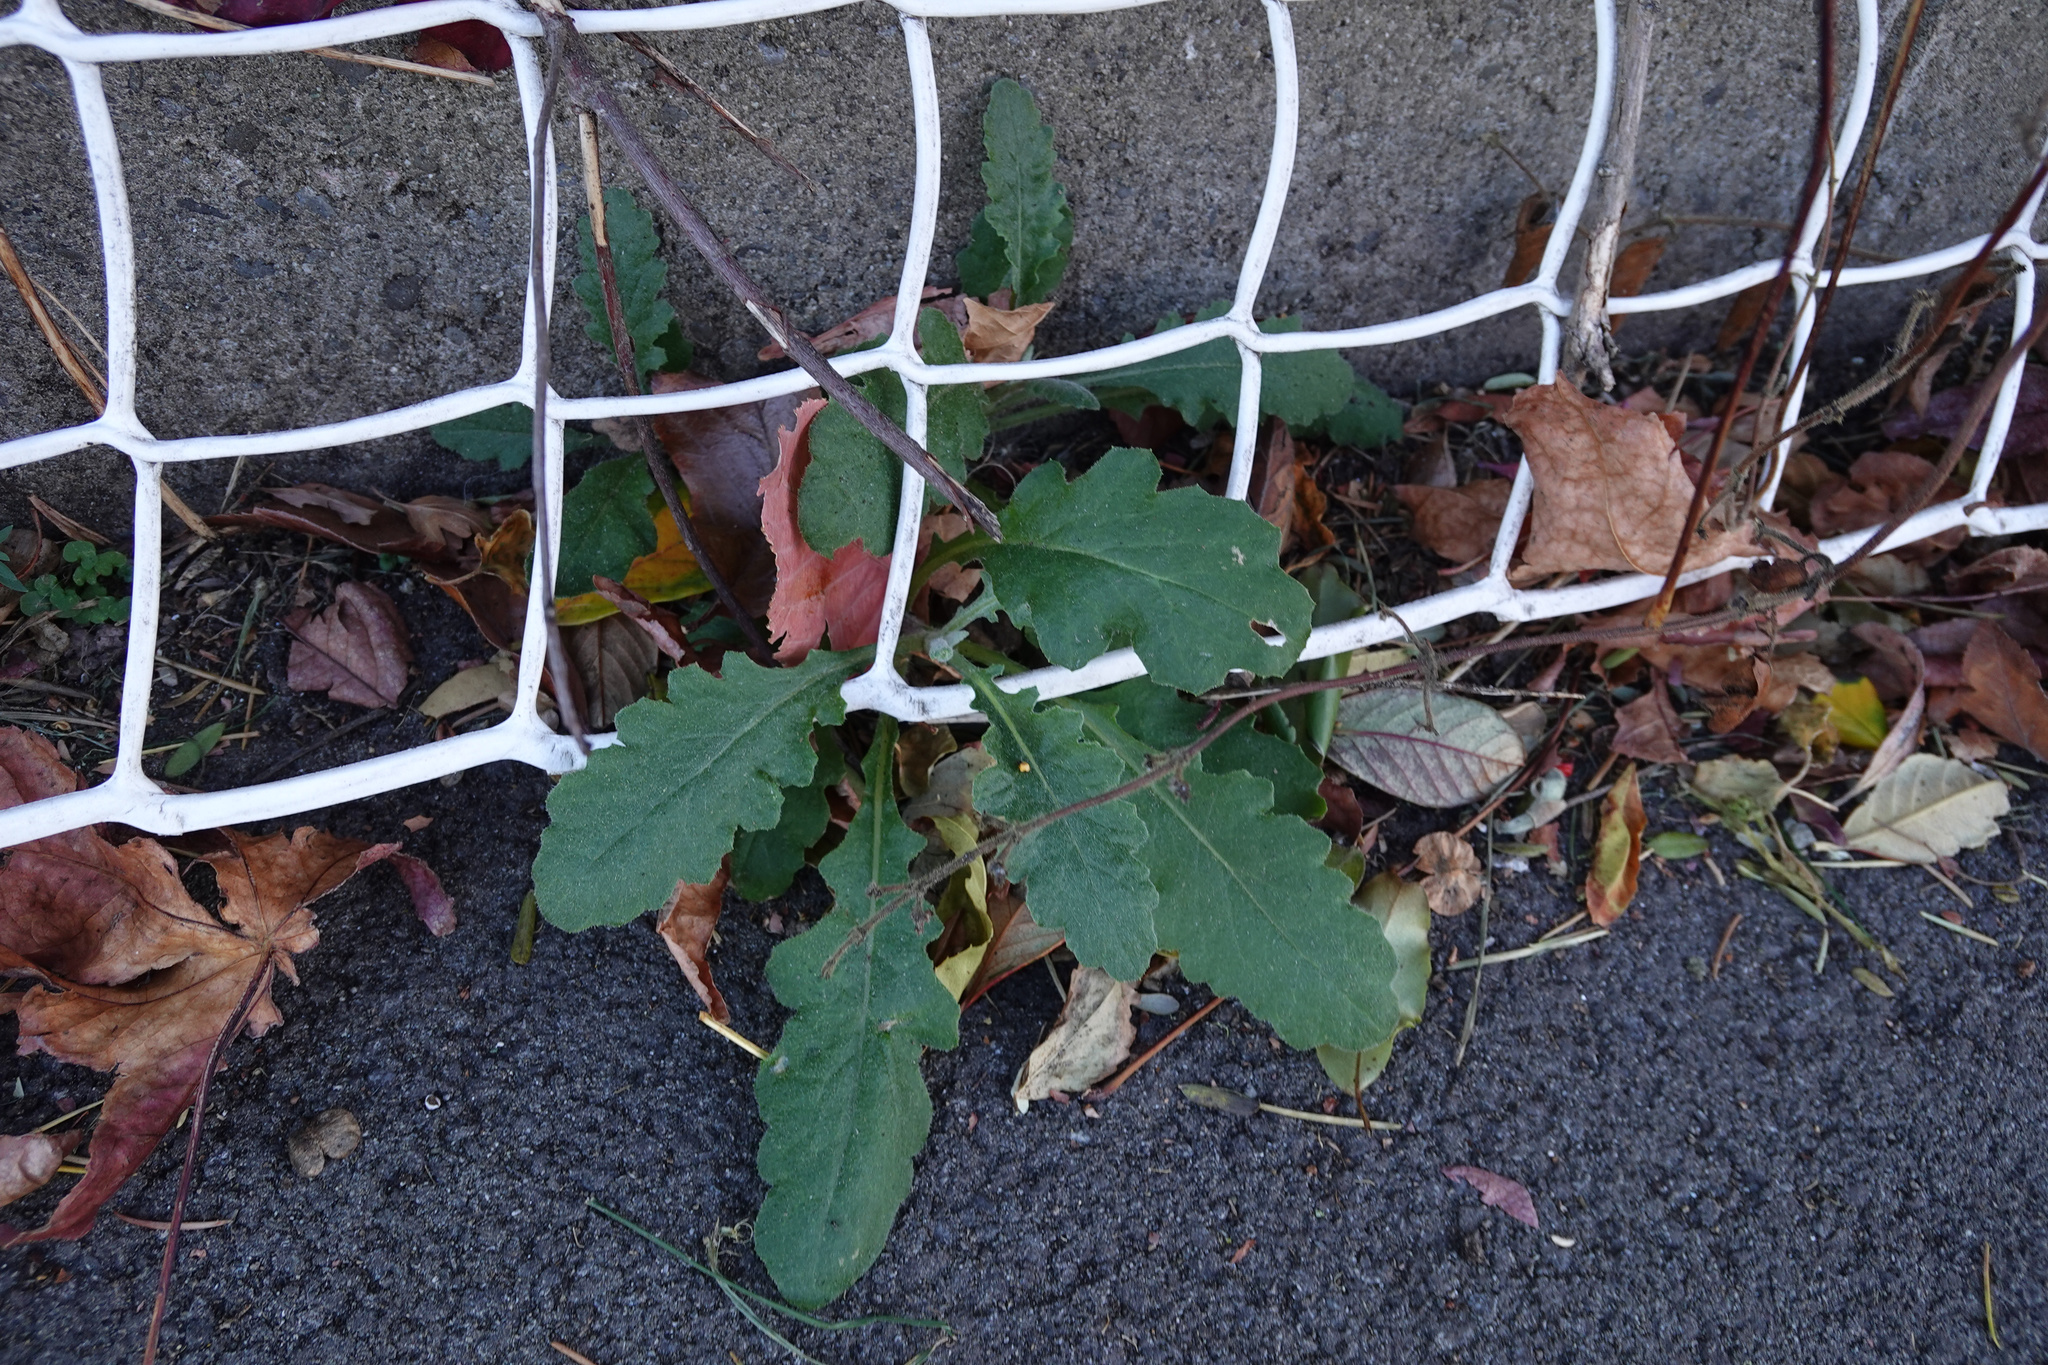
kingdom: Plantae
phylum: Tracheophyta
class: Magnoliopsida
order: Asterales
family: Asteraceae
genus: Senecio
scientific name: Senecio glomeratus
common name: Cutleaf burnweed
